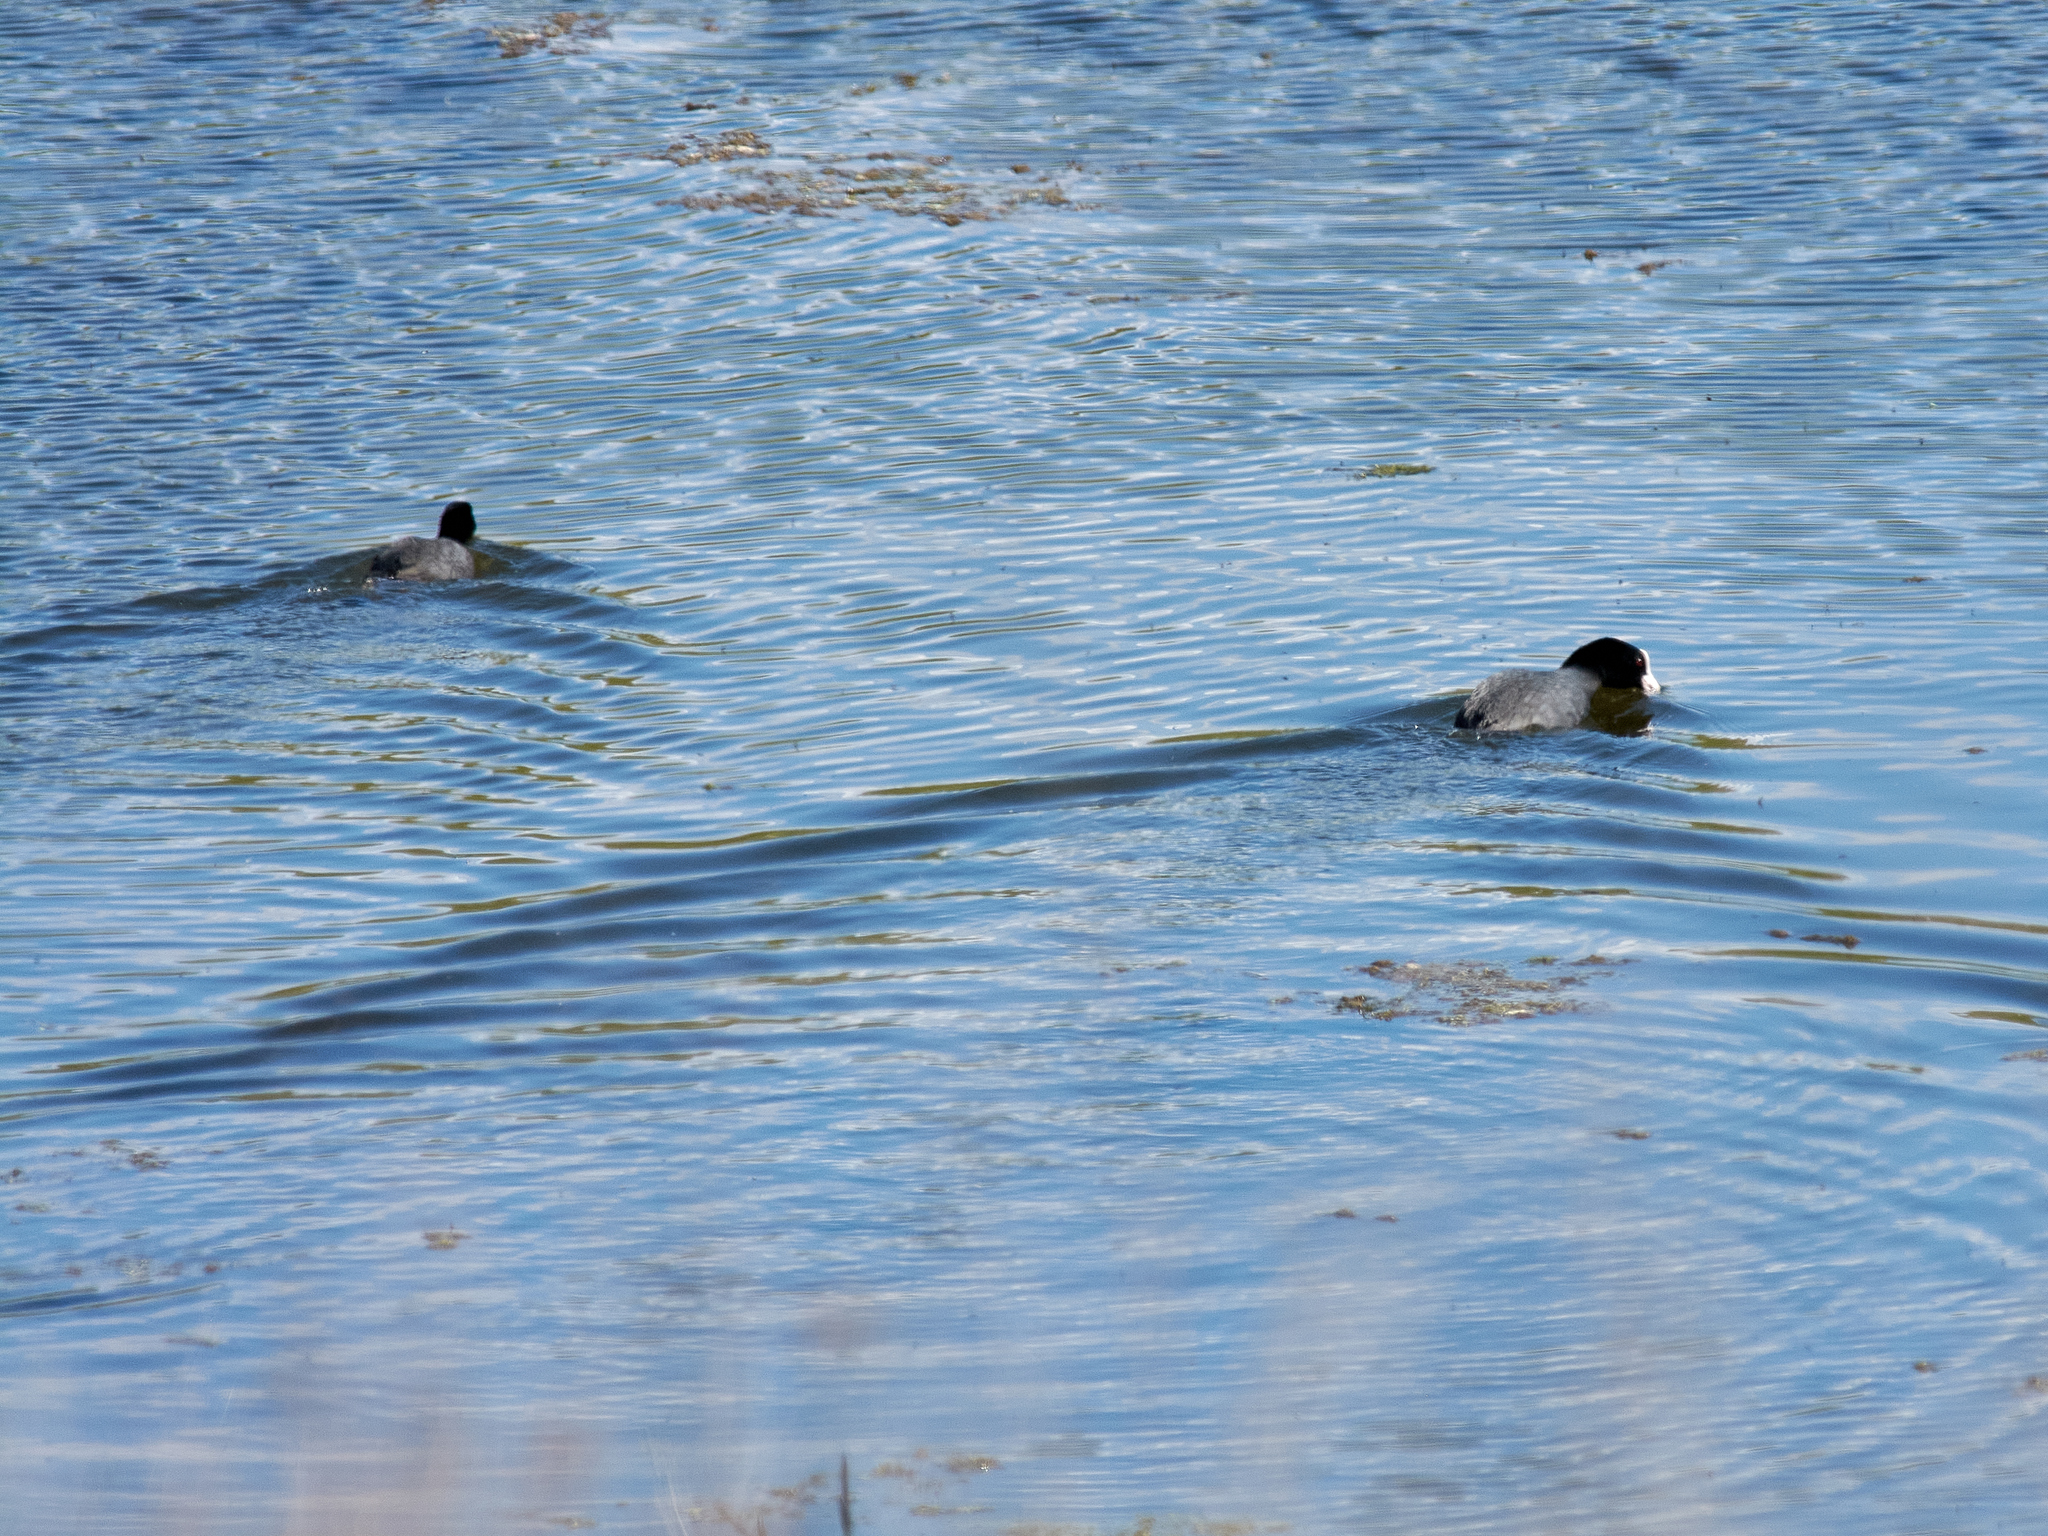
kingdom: Animalia
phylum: Chordata
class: Aves
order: Gruiformes
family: Rallidae
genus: Fulica
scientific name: Fulica atra
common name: Eurasian coot
